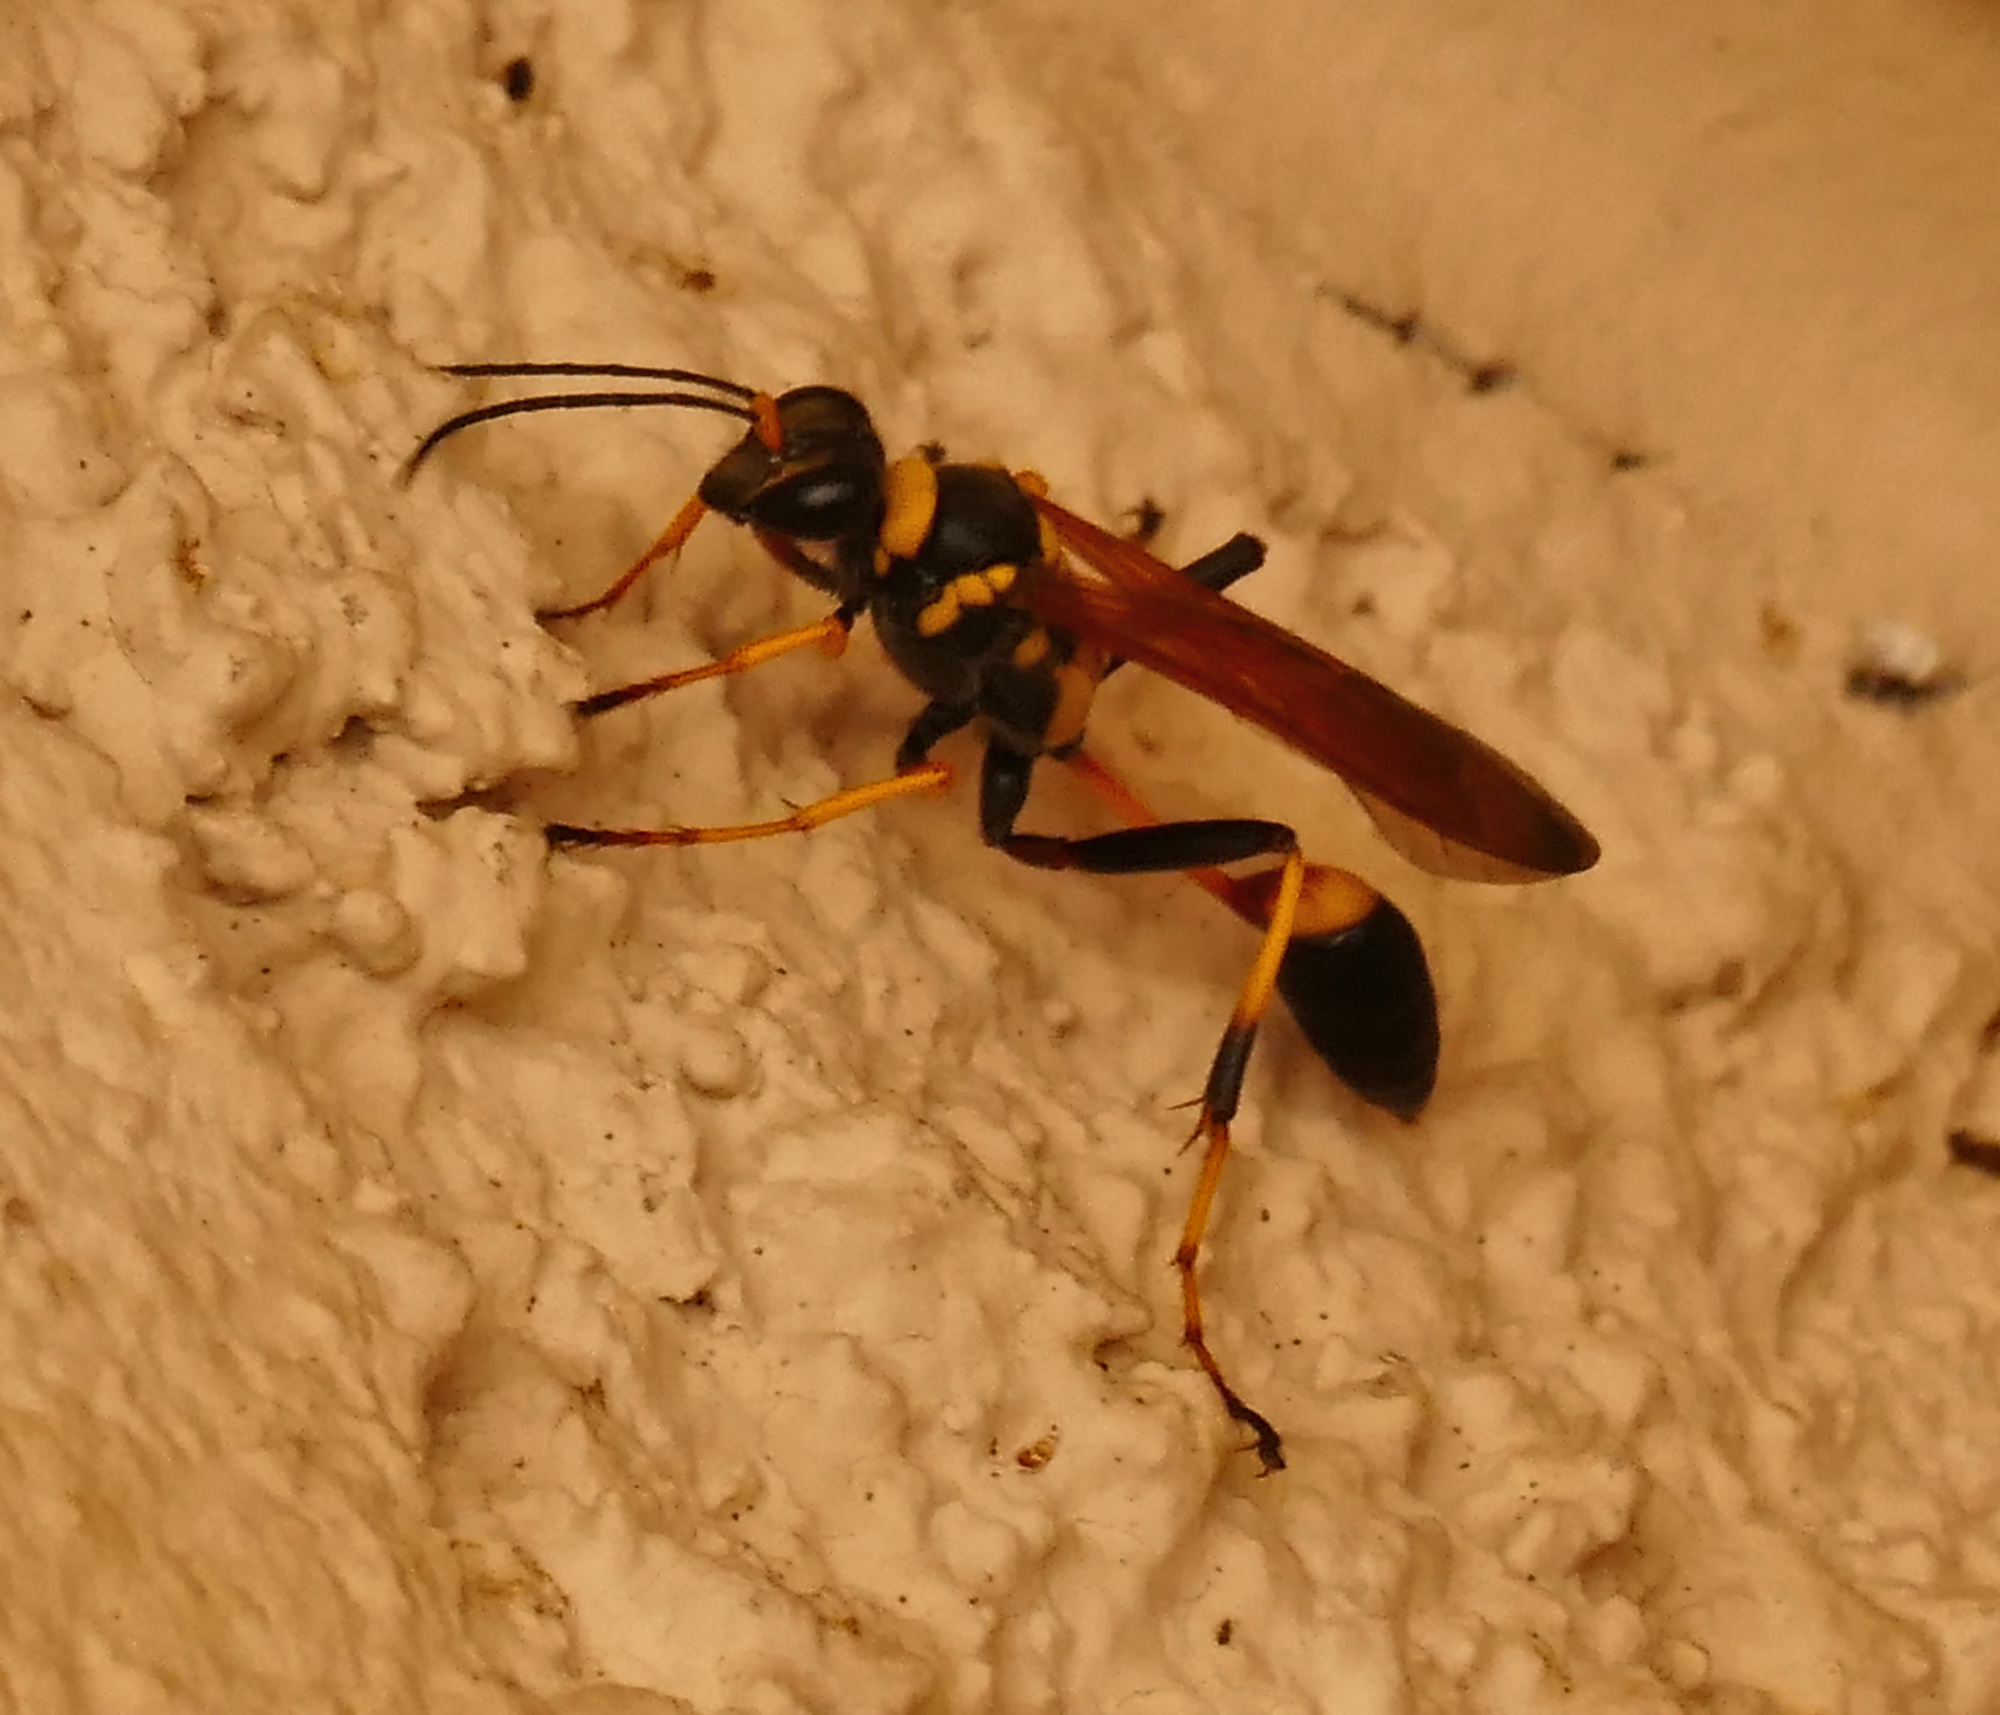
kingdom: Animalia
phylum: Arthropoda
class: Insecta
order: Hymenoptera
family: Sphecidae
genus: Sceliphron
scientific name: Sceliphron caementarium
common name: Mud dauber
